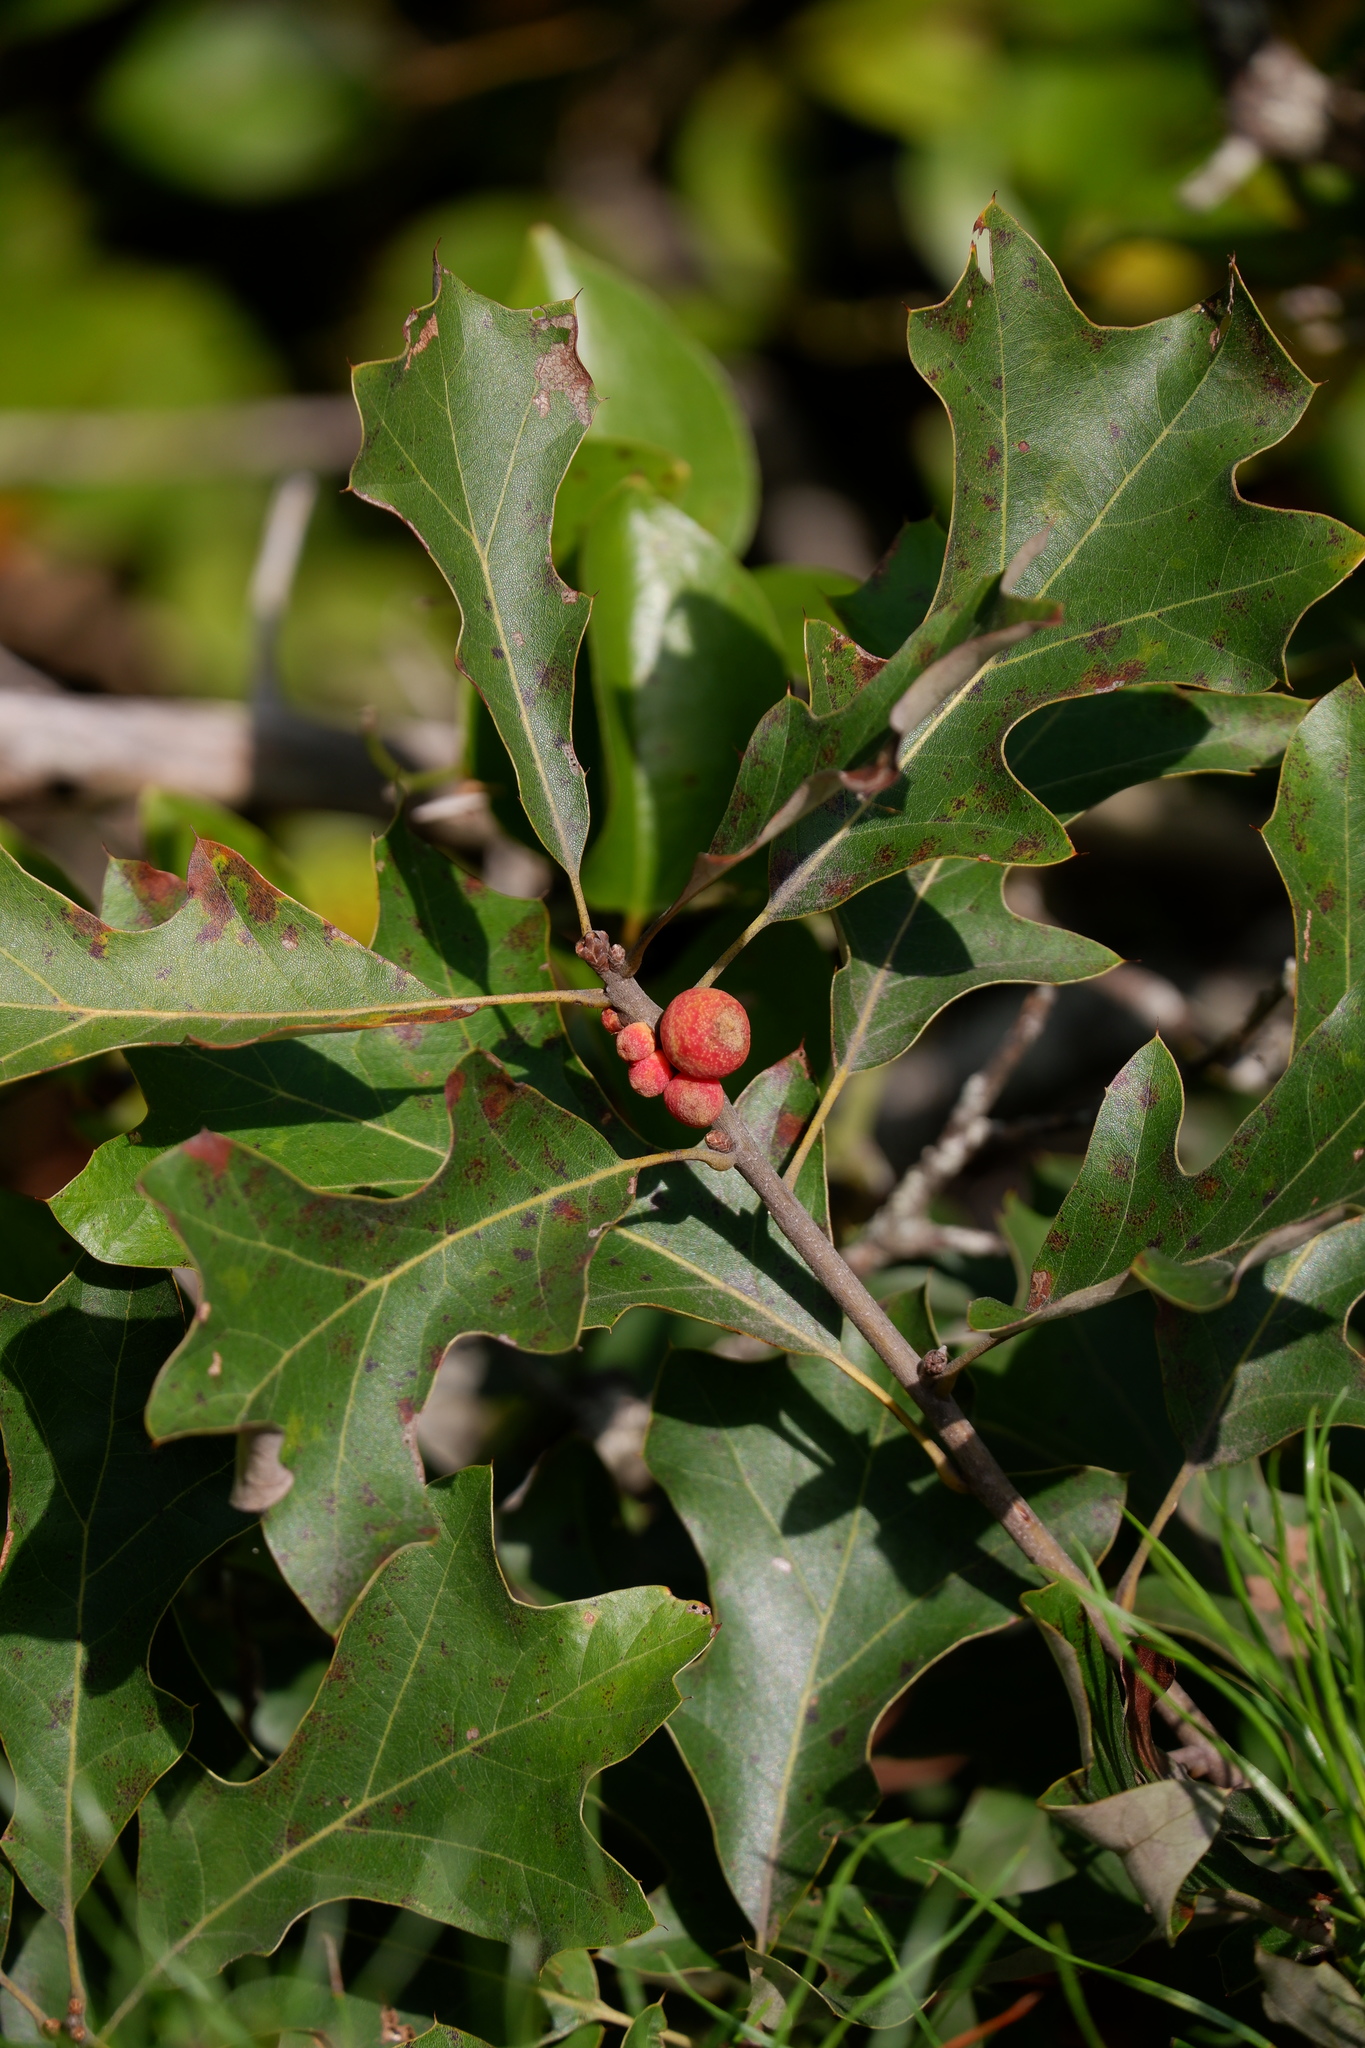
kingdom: Animalia
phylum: Arthropoda
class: Insecta
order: Hymenoptera
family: Cynipidae
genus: Kokkocynips
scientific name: Kokkocynips imbricariae
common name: Banded bullet gall wasp
